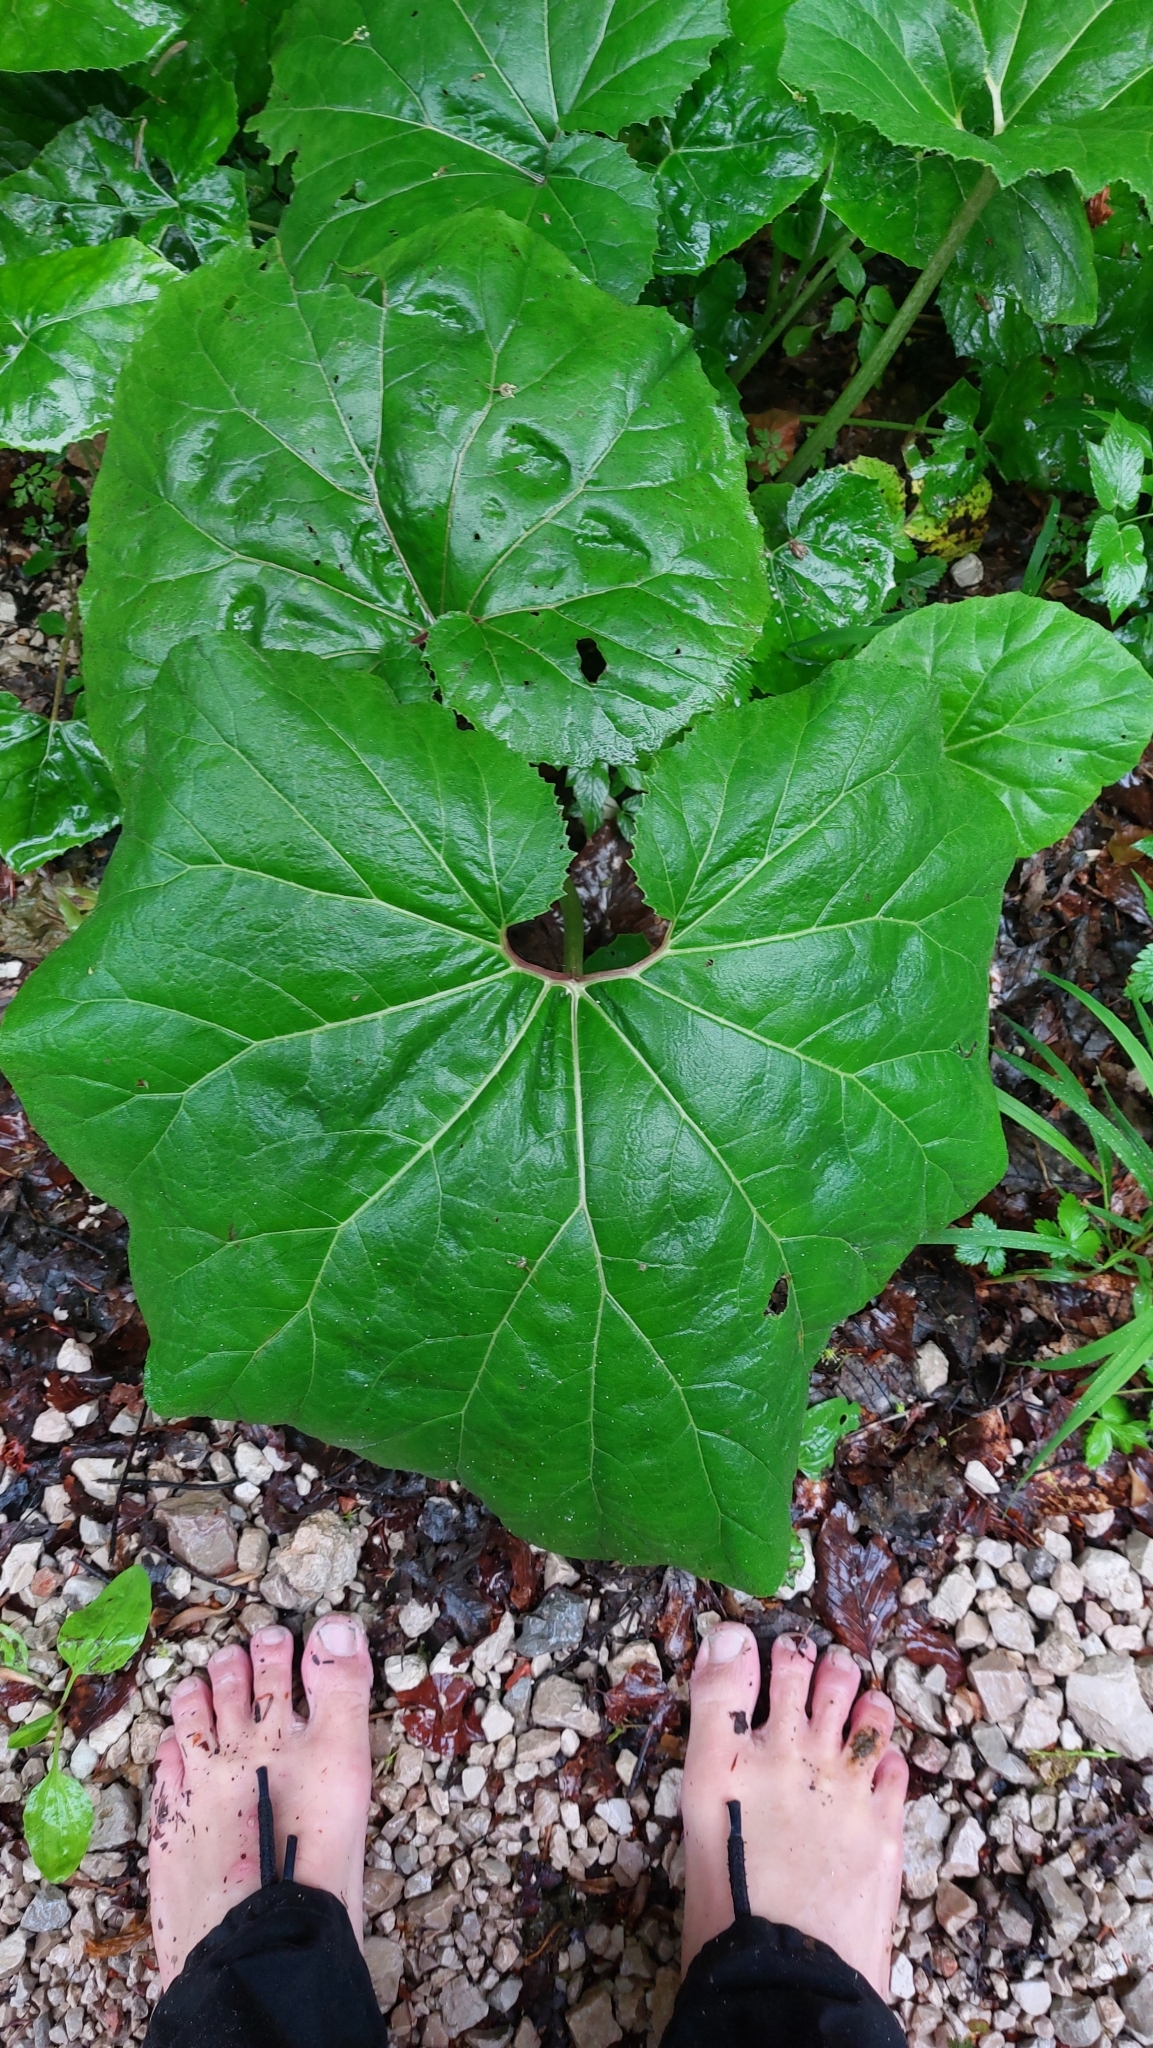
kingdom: Plantae
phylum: Tracheophyta
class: Magnoliopsida
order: Asterales
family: Asteraceae
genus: Petasites
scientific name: Petasites hybridus
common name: Butterbur
